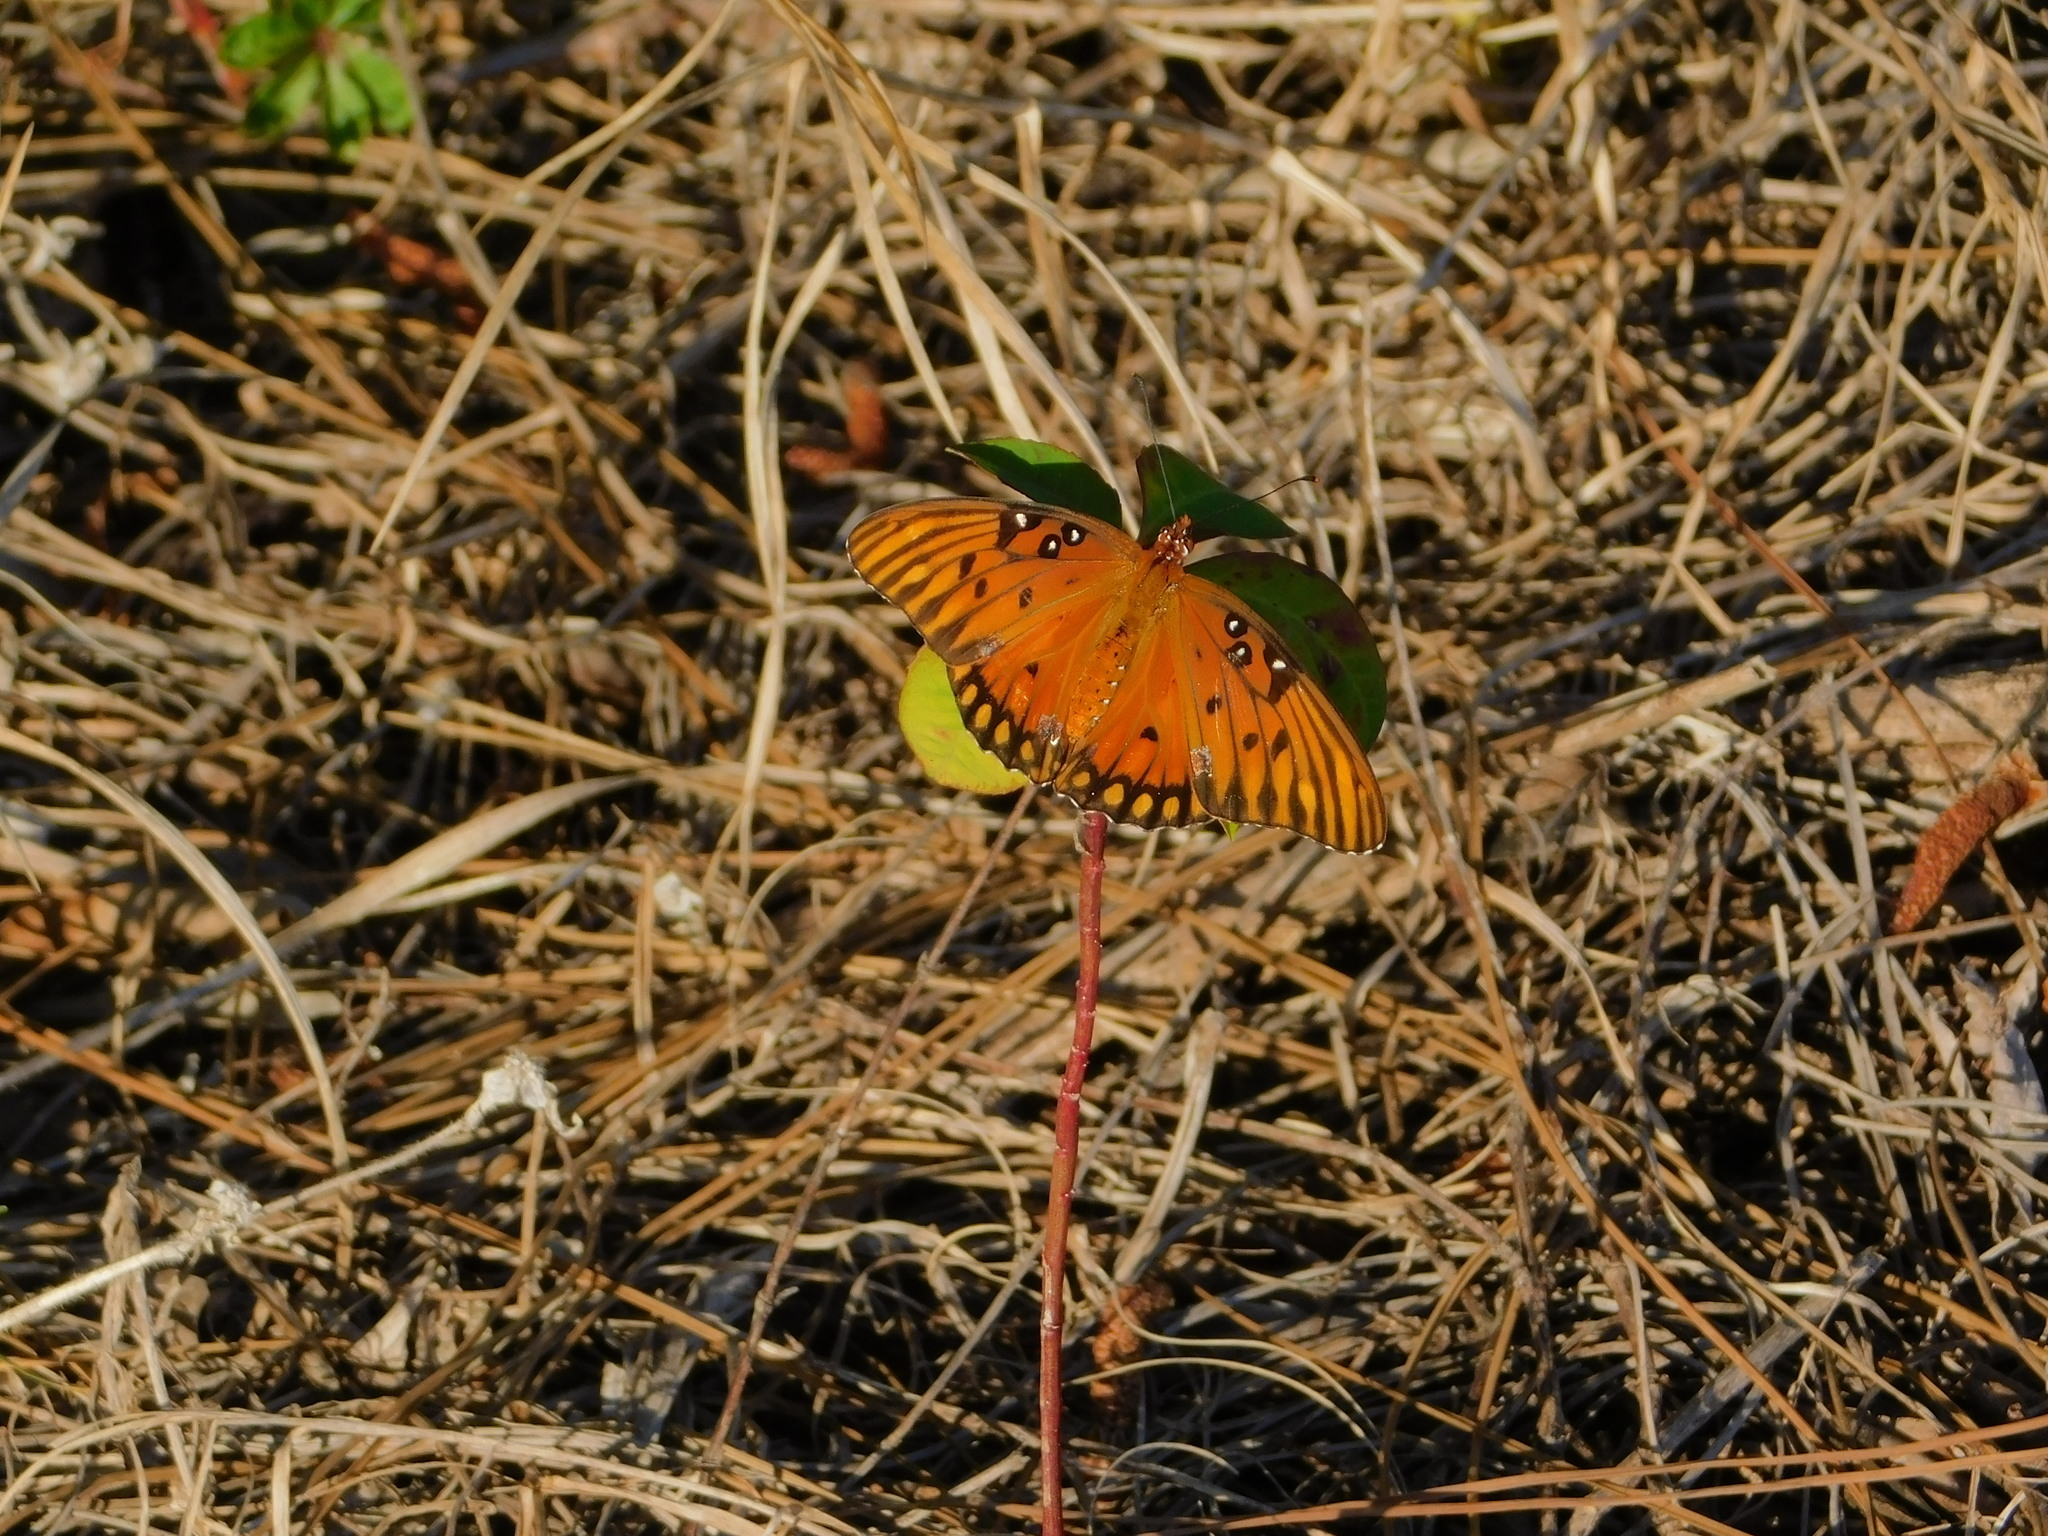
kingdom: Animalia
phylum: Arthropoda
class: Insecta
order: Lepidoptera
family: Nymphalidae
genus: Dione
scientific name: Dione vanillae
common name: Gulf fritillary
